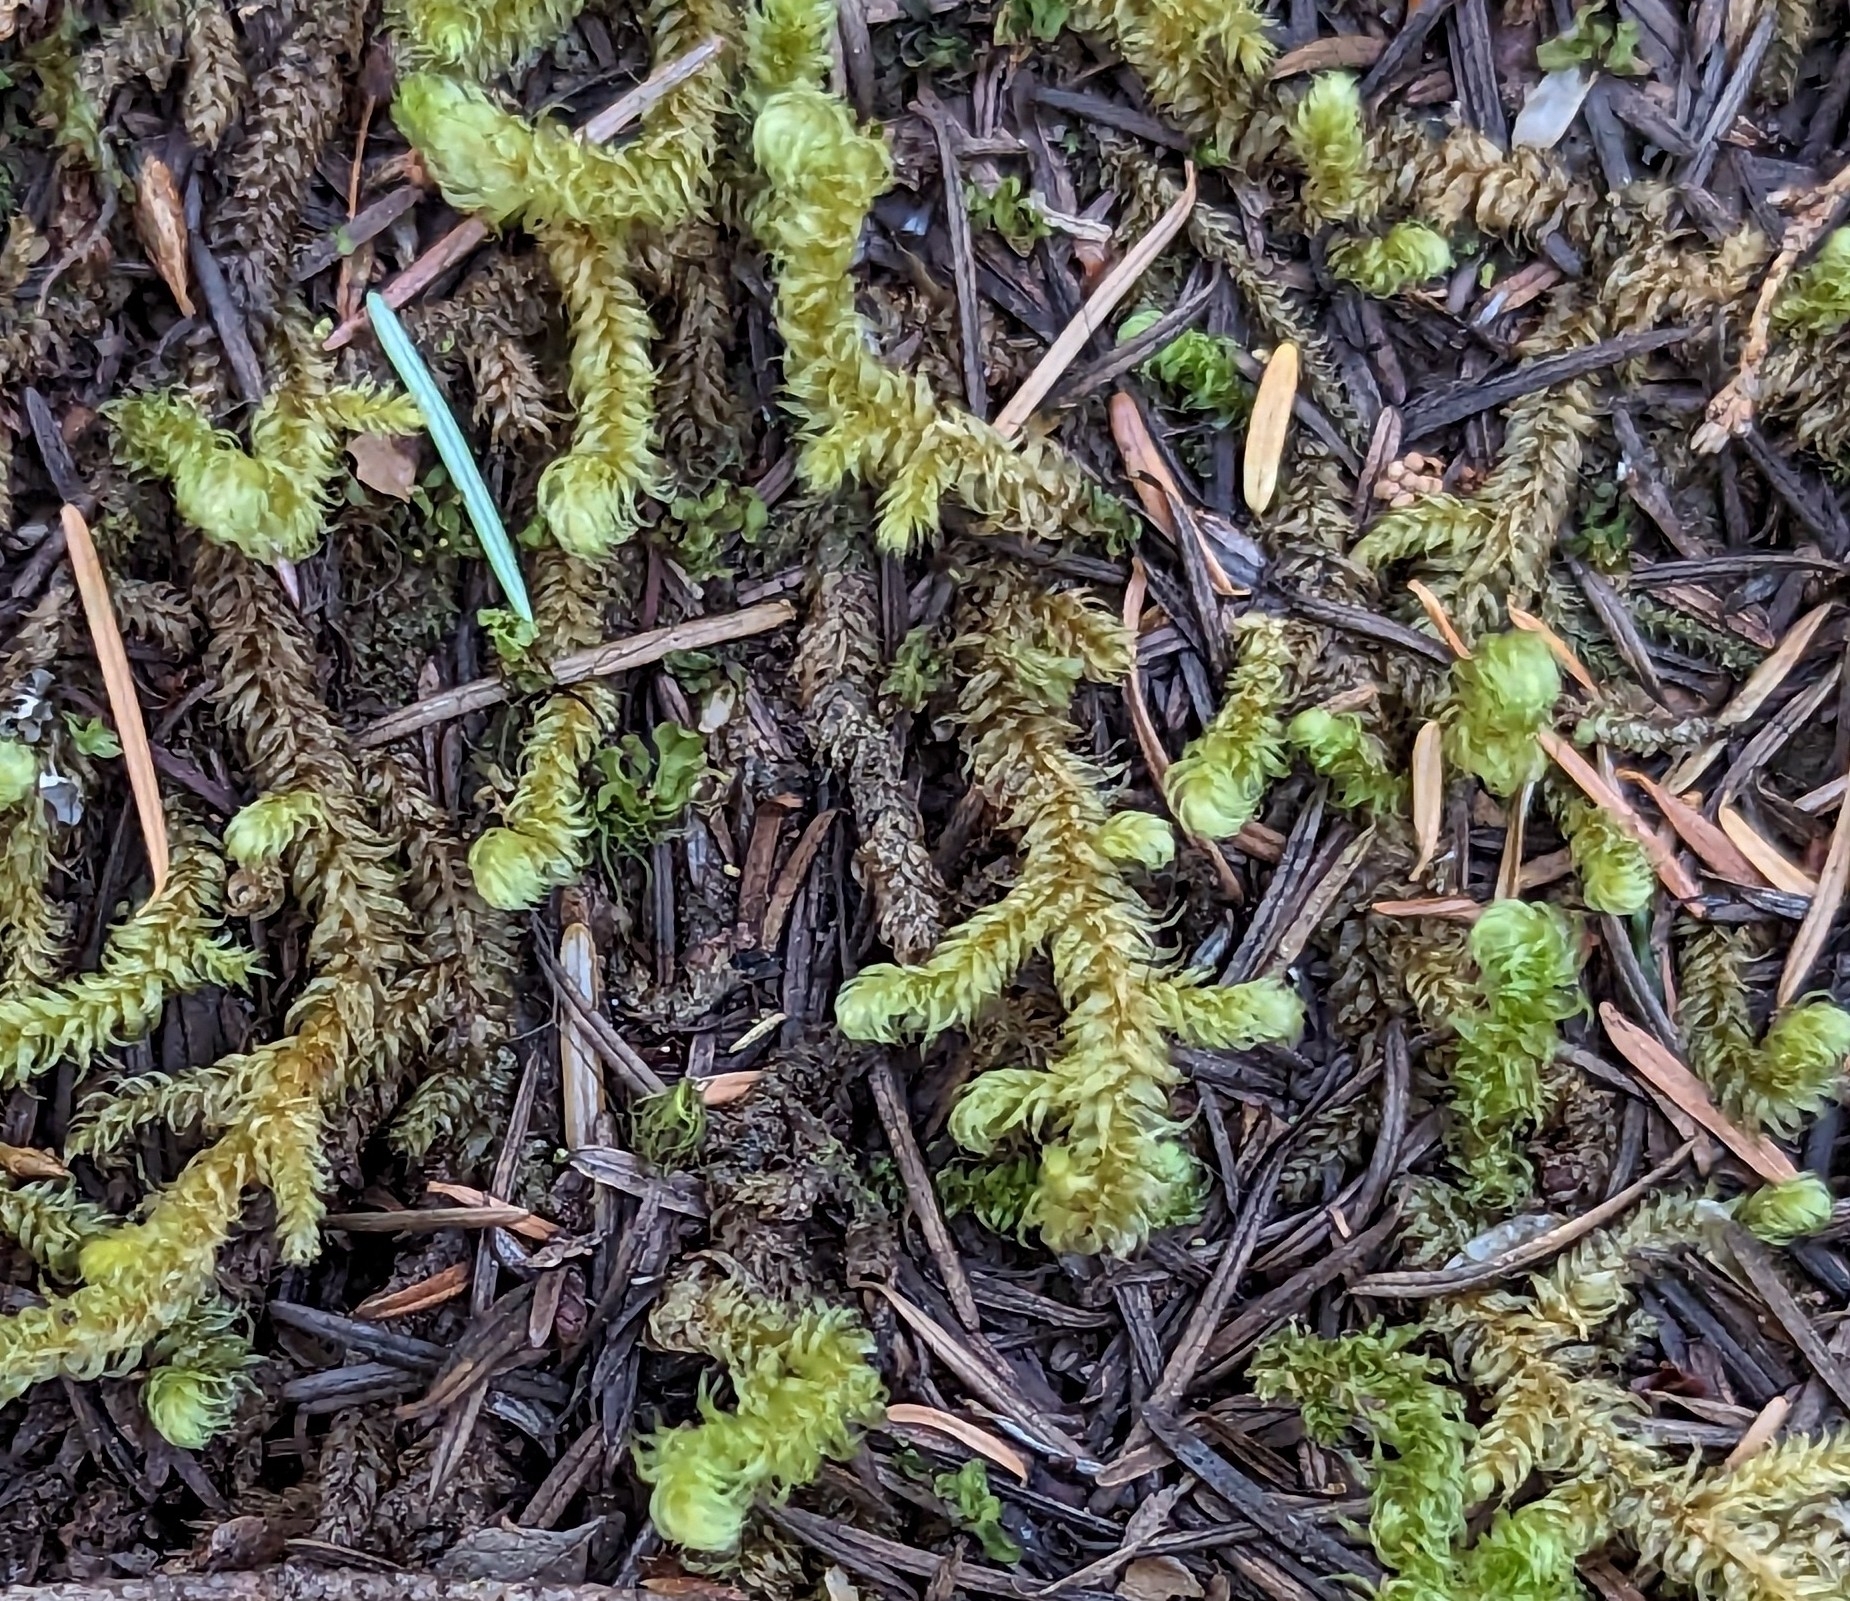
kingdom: Plantae
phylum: Bryophyta
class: Bryopsida
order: Hypnales
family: Hylocomiaceae
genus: Rhytidiopsis
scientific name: Rhytidiopsis robusta
